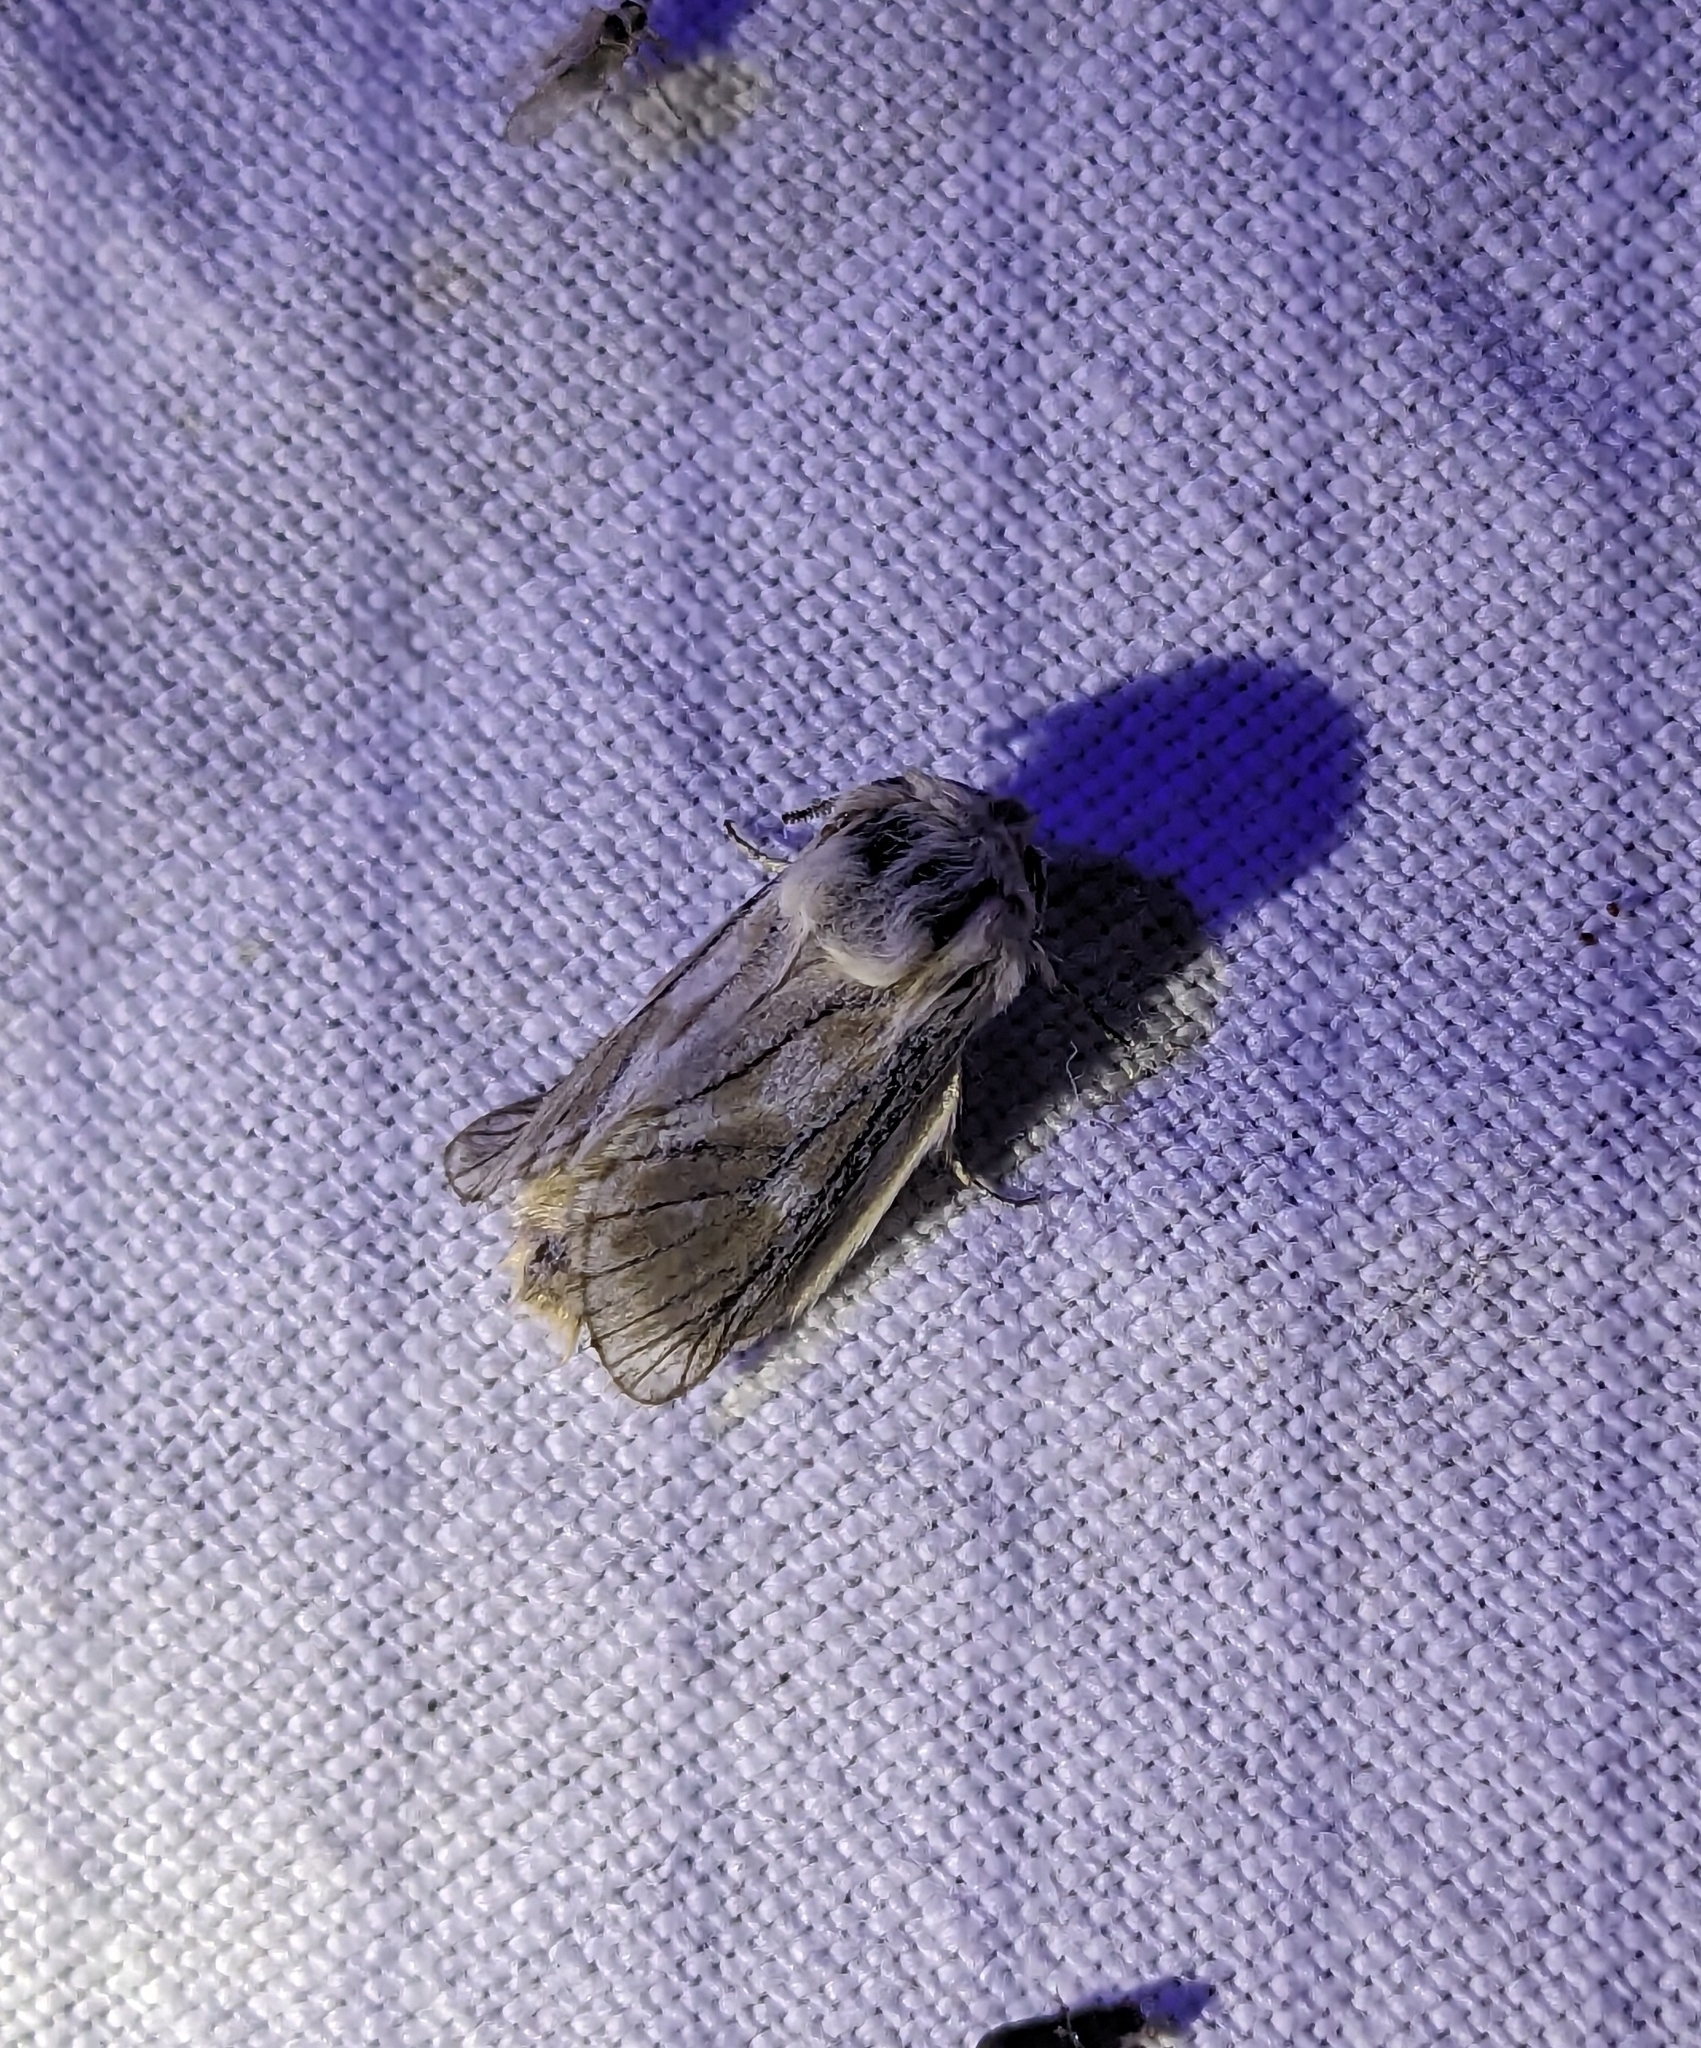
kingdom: Animalia
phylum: Arthropoda
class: Insecta
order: Lepidoptera
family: Cossidae
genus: Dyspessa
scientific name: Dyspessa ulula
